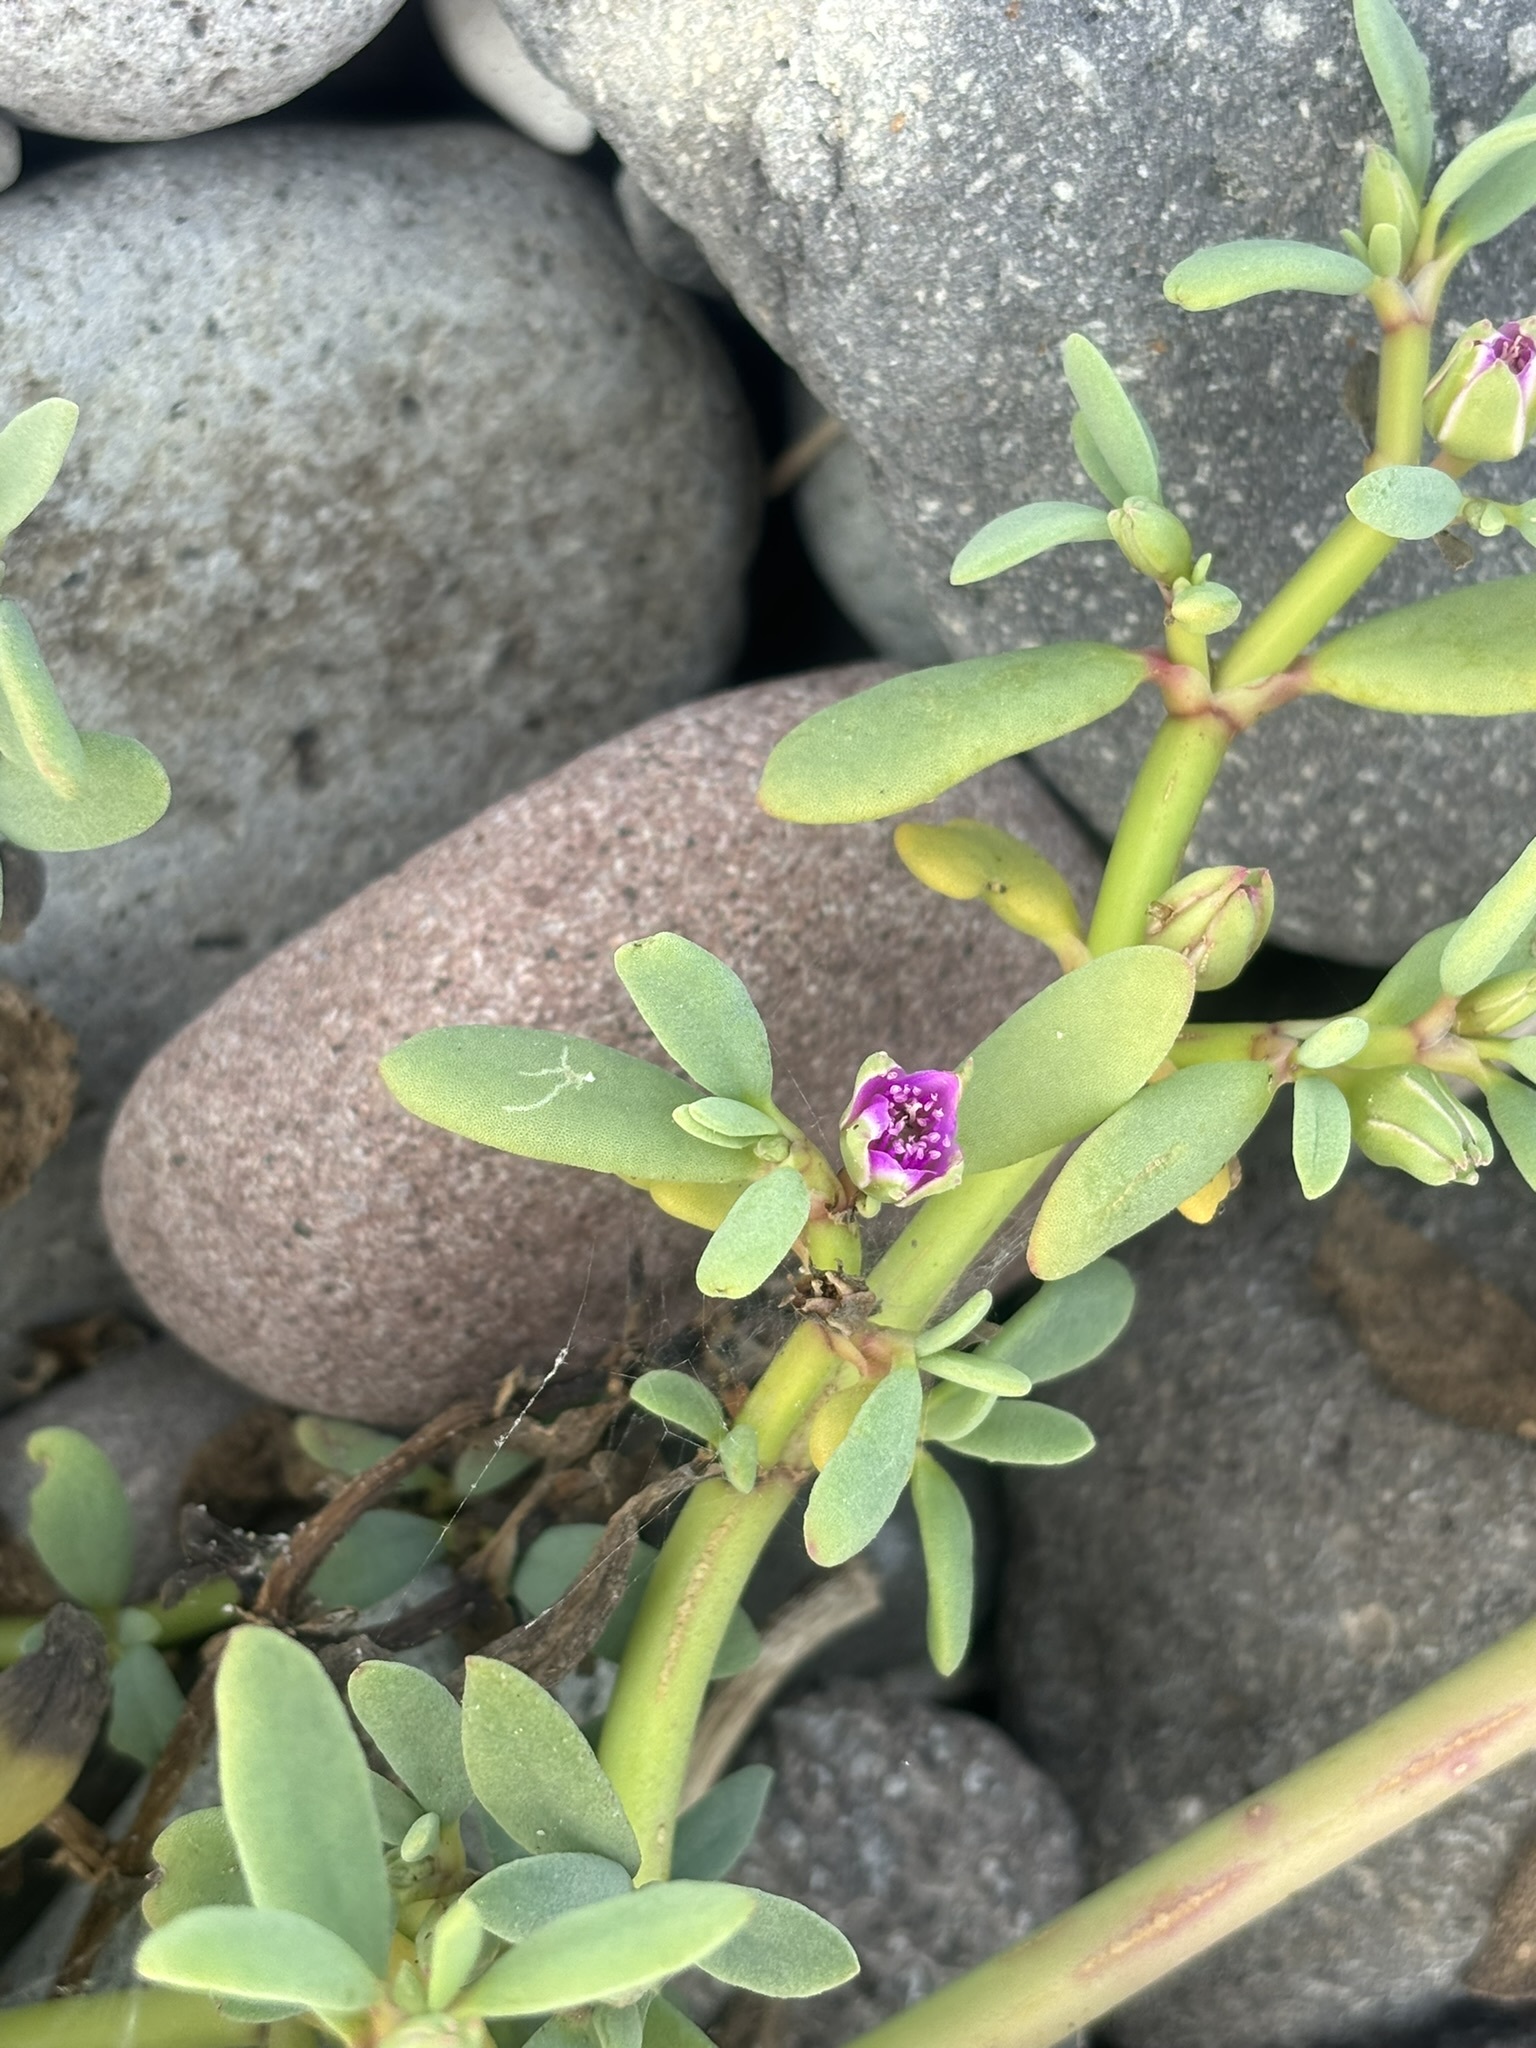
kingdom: Plantae
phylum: Tracheophyta
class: Magnoliopsida
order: Caryophyllales
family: Aizoaceae
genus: Sesuvium
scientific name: Sesuvium portulacastrum
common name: Sea-purslane
